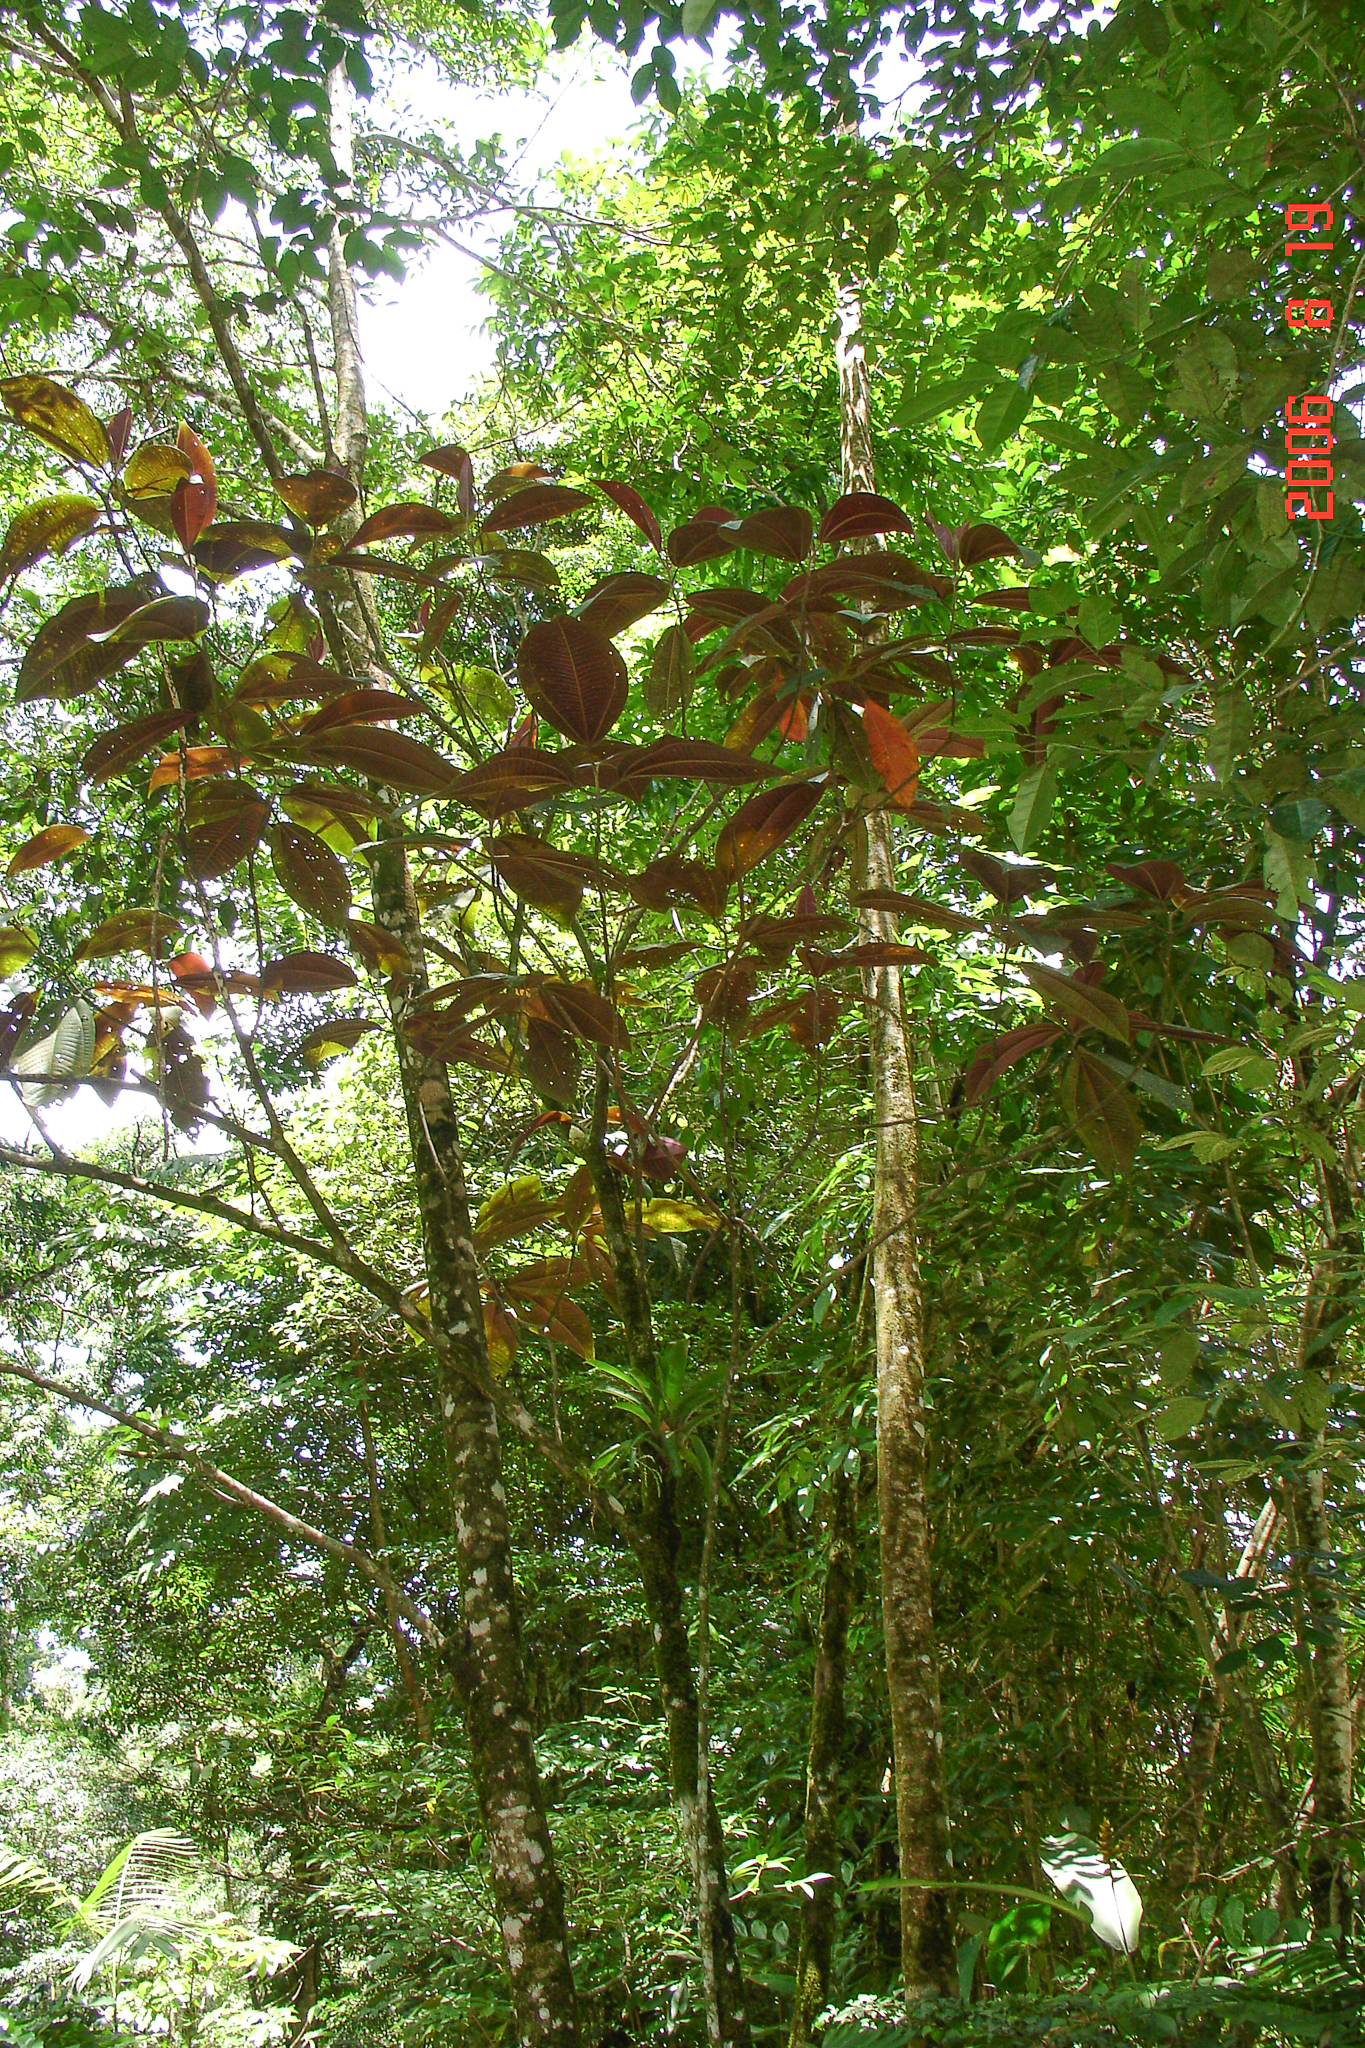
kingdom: Plantae
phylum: Tracheophyta
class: Magnoliopsida
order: Myrtales
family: Melastomataceae
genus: Miconia
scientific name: Miconia calvescens
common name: Purple plague
